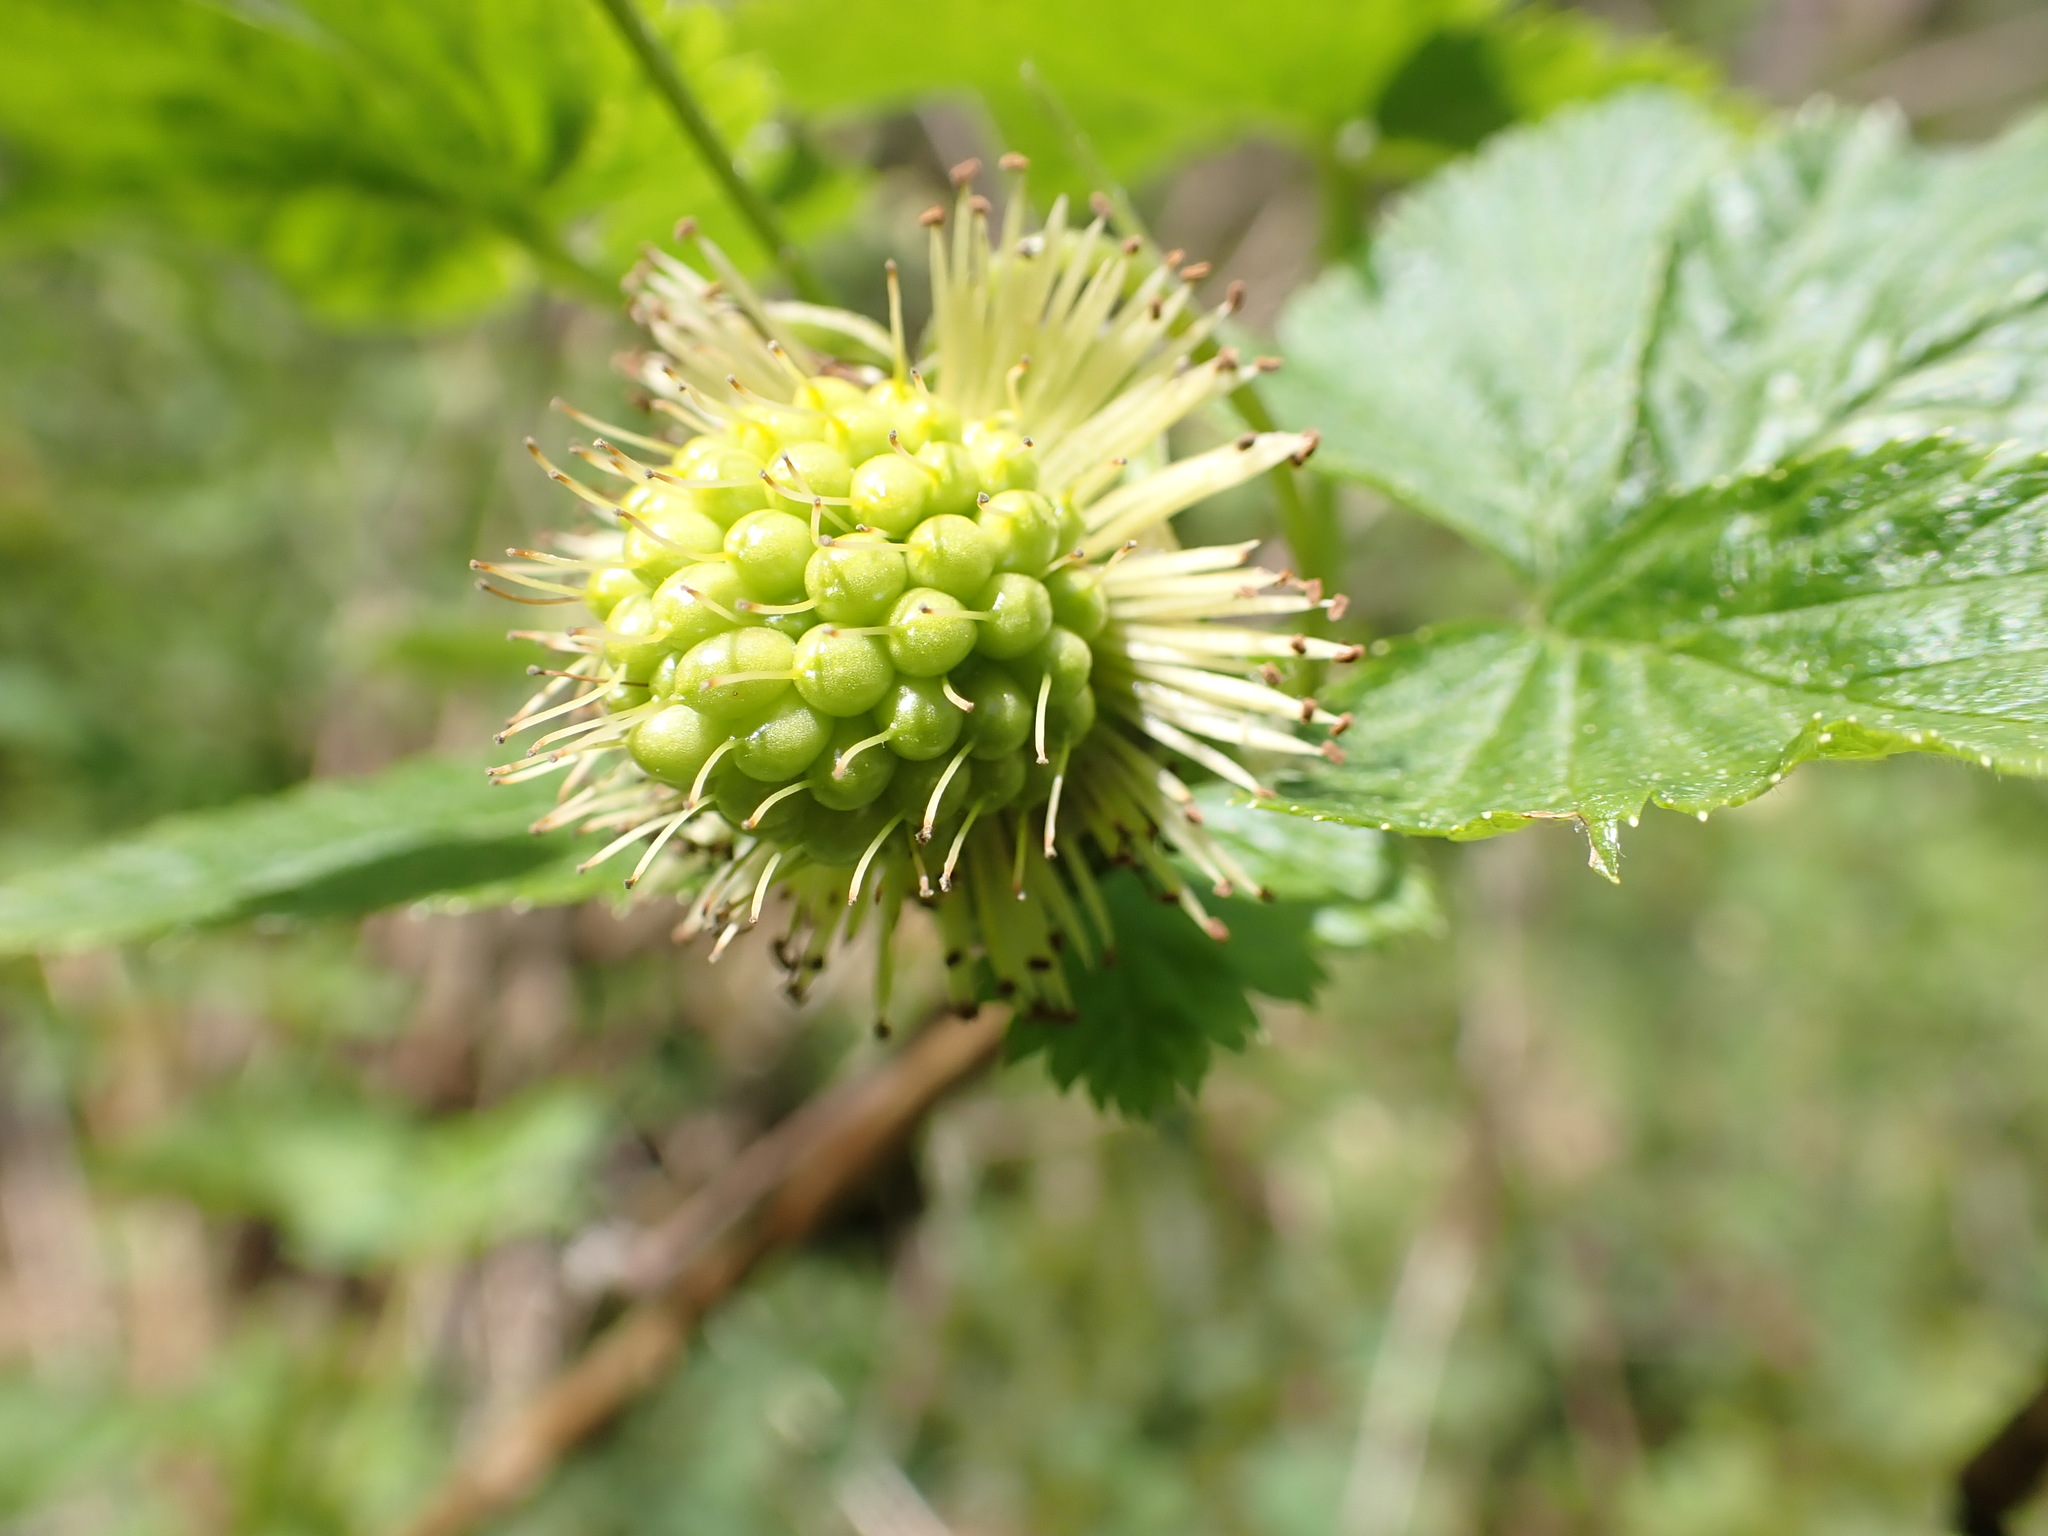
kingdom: Plantae
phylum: Tracheophyta
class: Magnoliopsida
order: Rosales
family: Rosaceae
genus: Rubus
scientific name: Rubus spectabilis
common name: Salmonberry
